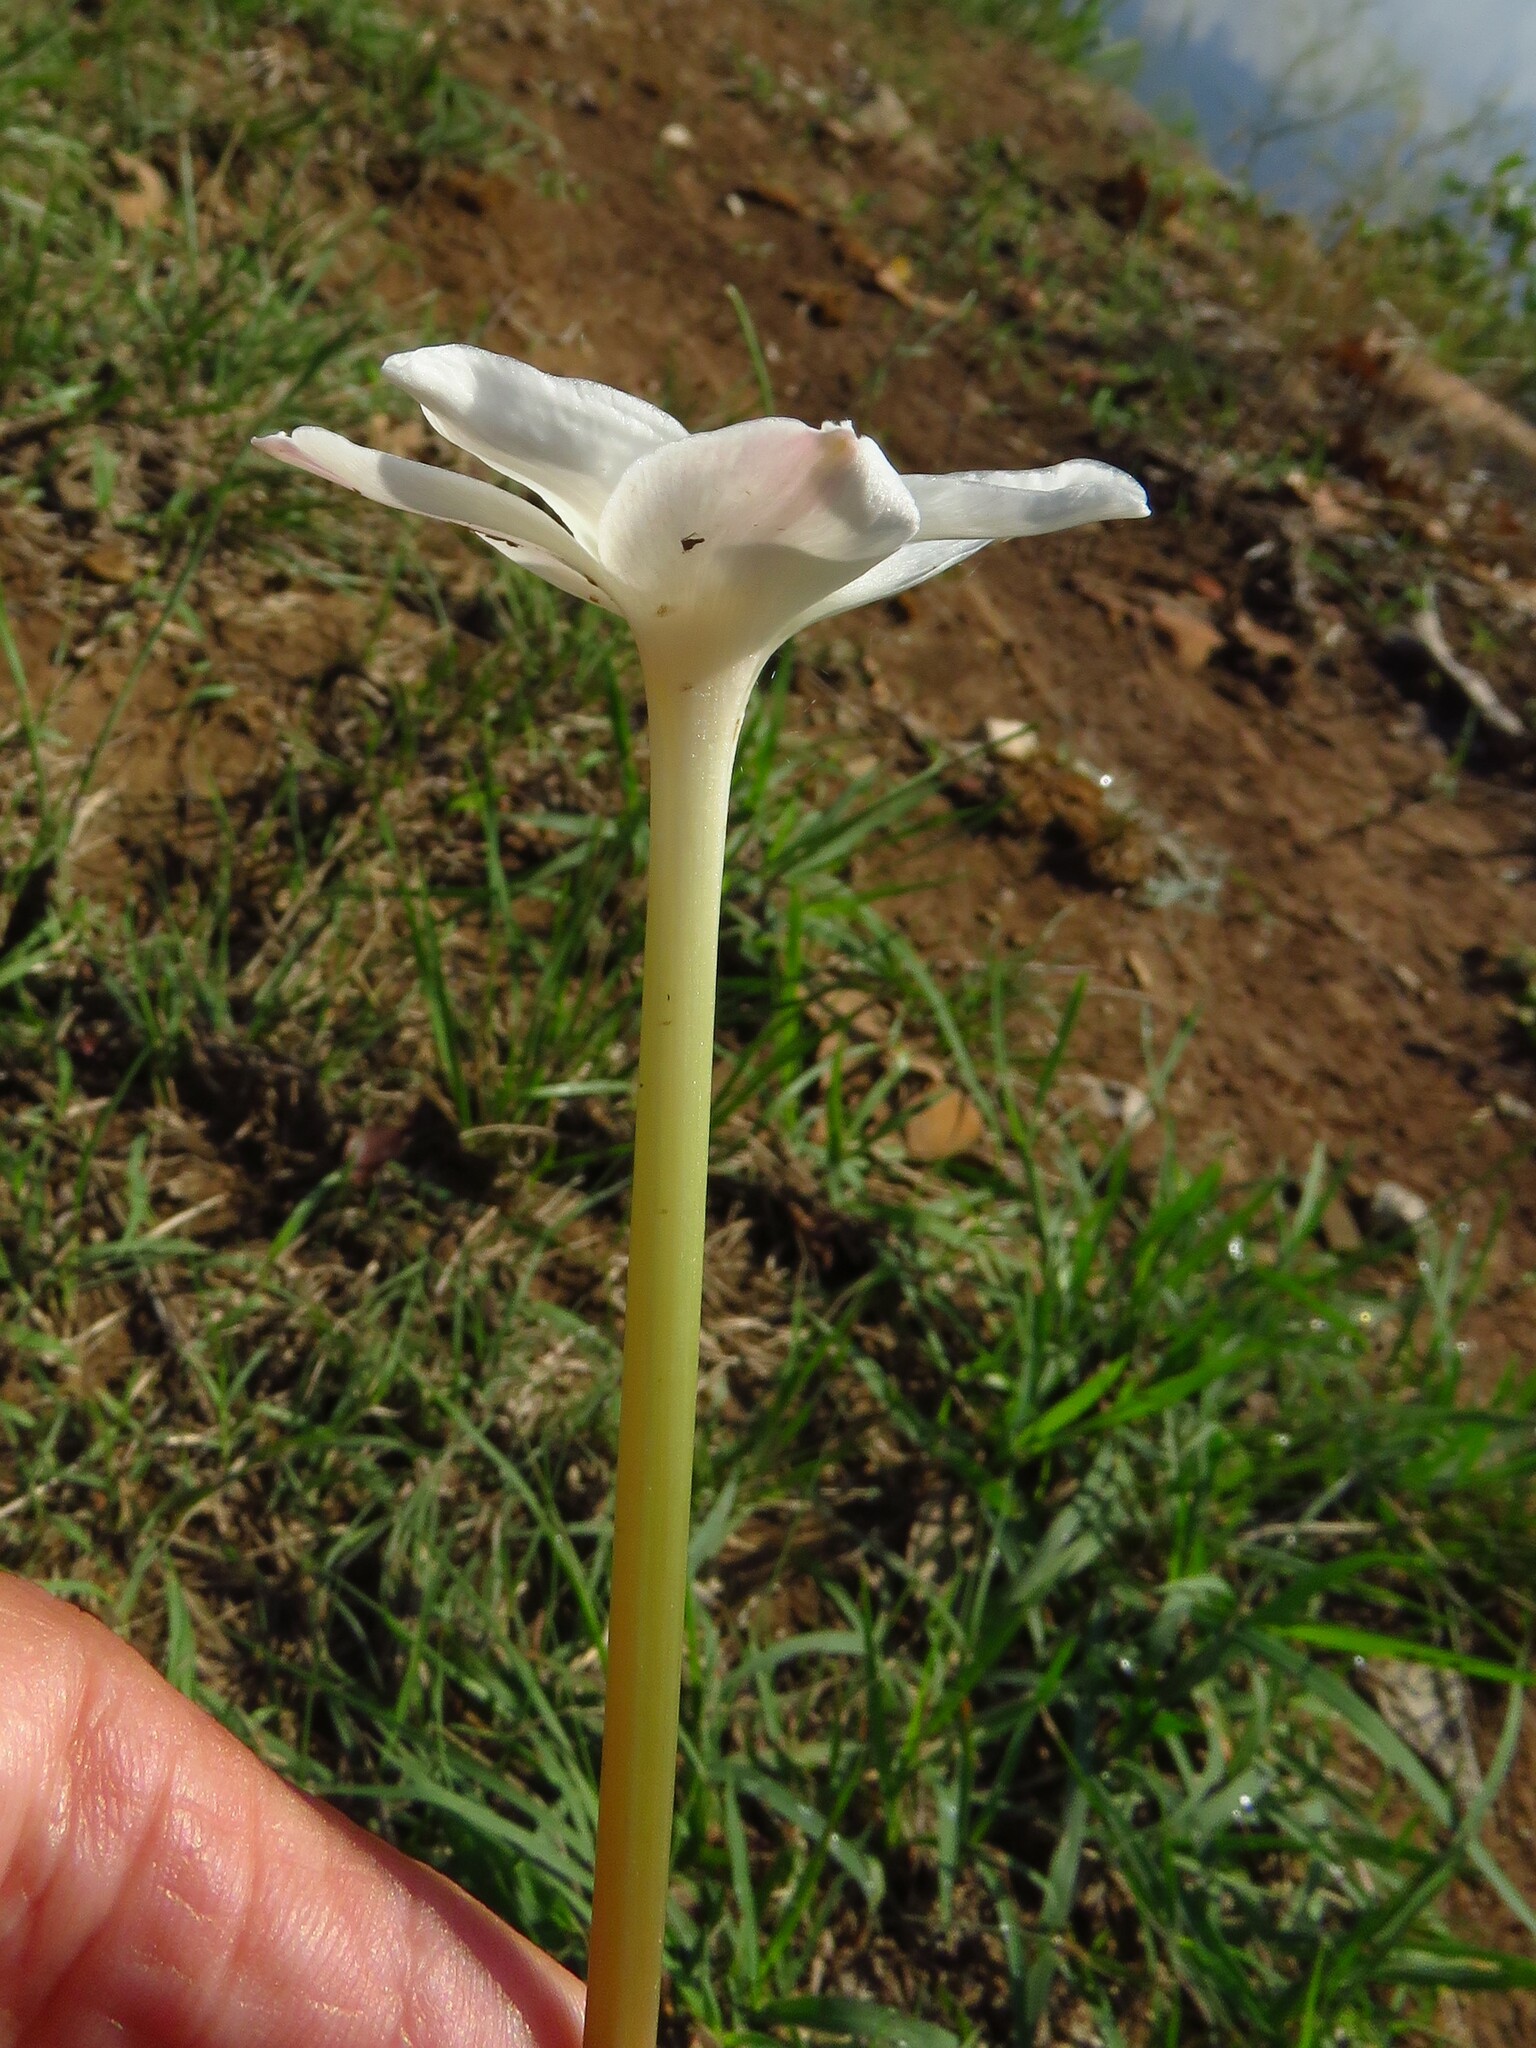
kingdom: Plantae
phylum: Tracheophyta
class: Liliopsida
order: Asparagales
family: Amaryllidaceae
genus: Zephyranthes
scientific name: Zephyranthes chlorosolen
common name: Evening rain-lily
